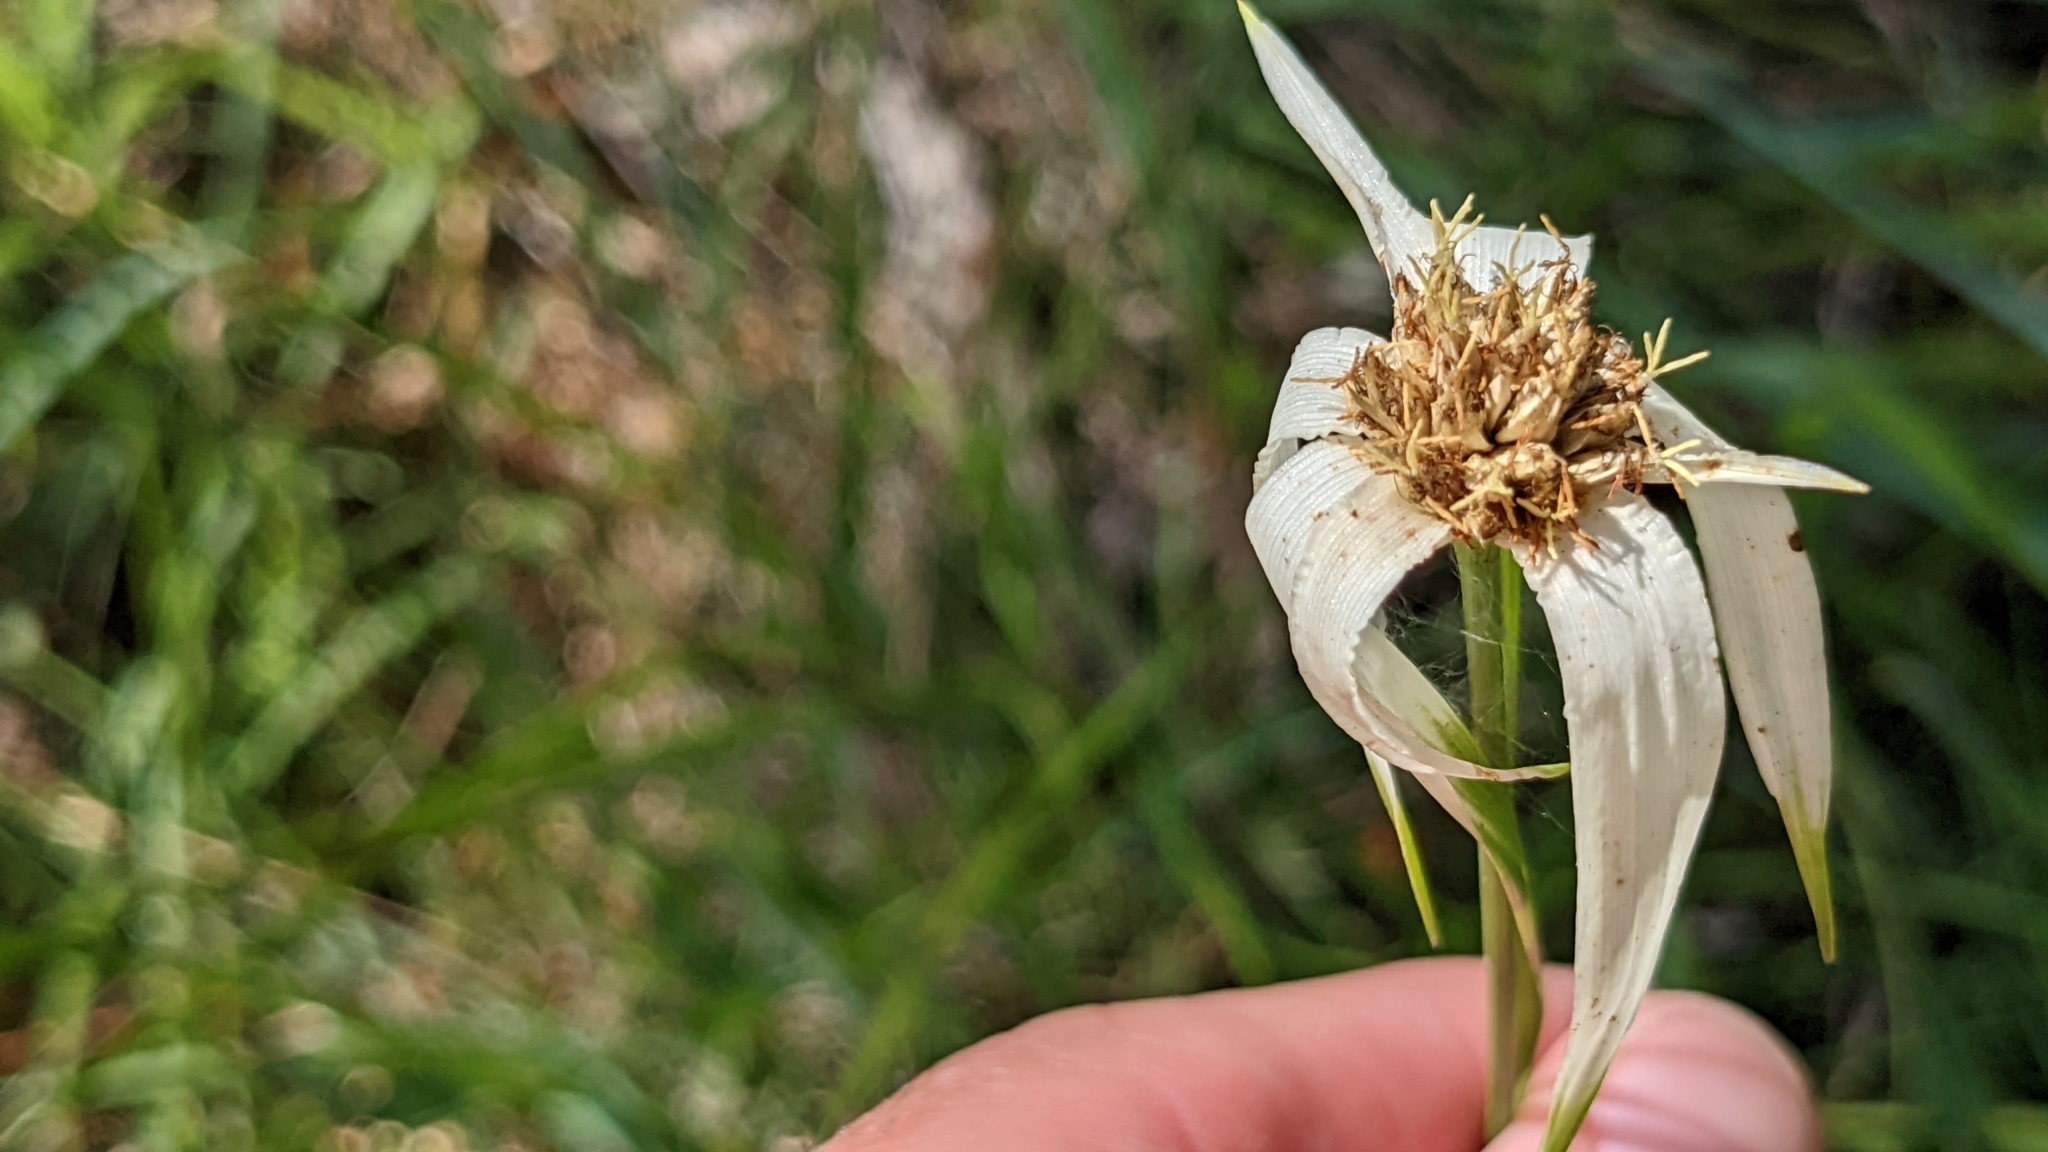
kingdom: Plantae
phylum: Tracheophyta
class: Liliopsida
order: Poales
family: Cyperaceae
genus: Rhynchospora
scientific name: Rhynchospora latifolia
